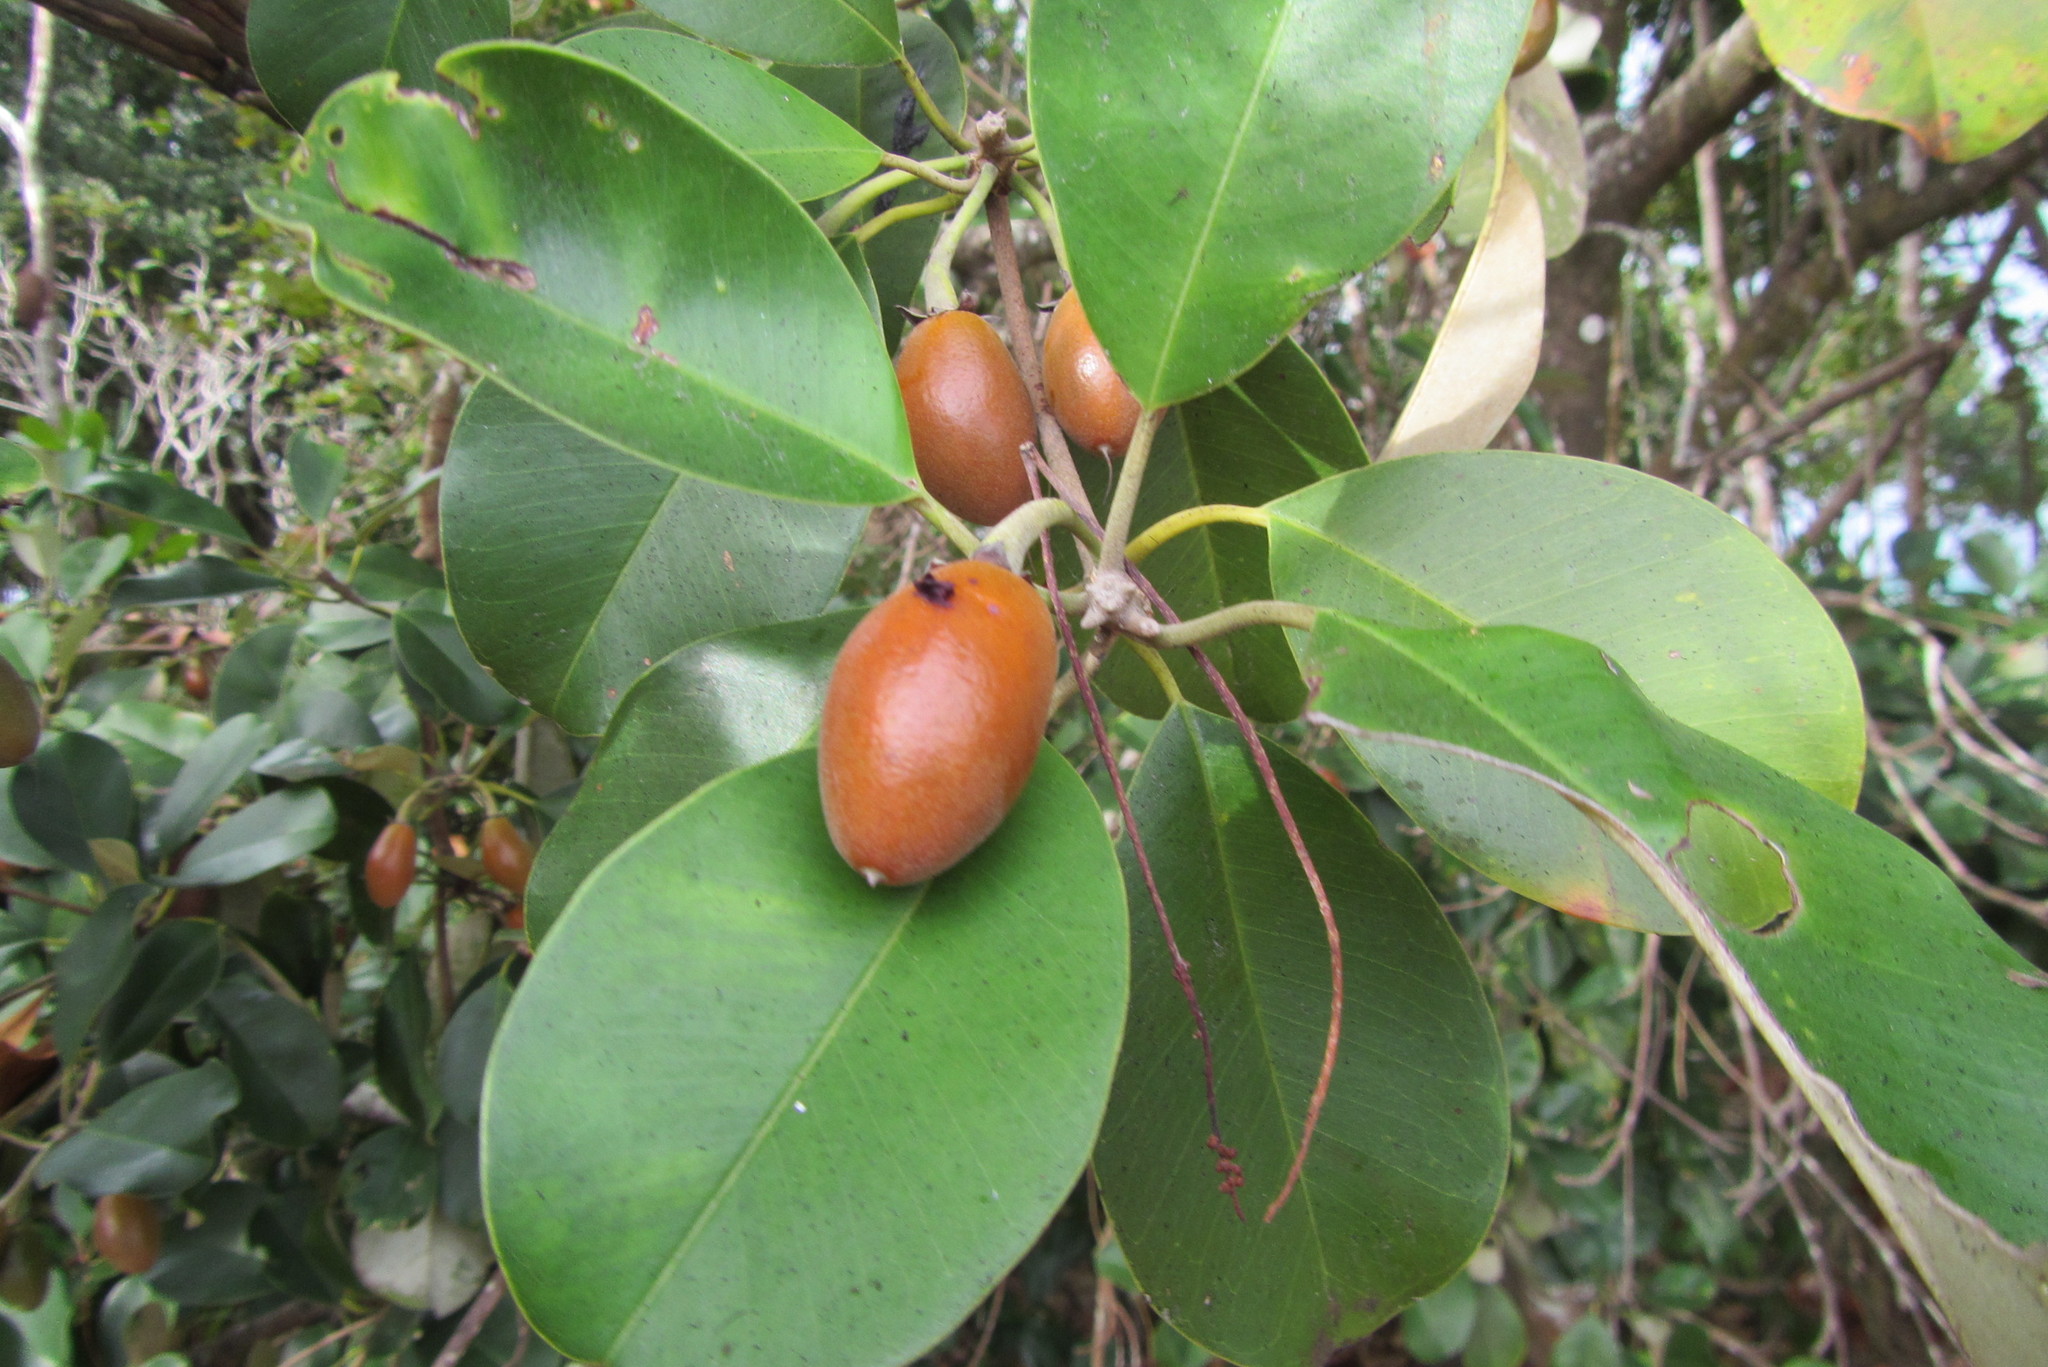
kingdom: Plantae
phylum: Tracheophyta
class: Magnoliopsida
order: Ericales
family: Sapotaceae
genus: Manilkara
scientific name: Manilkara kauki
